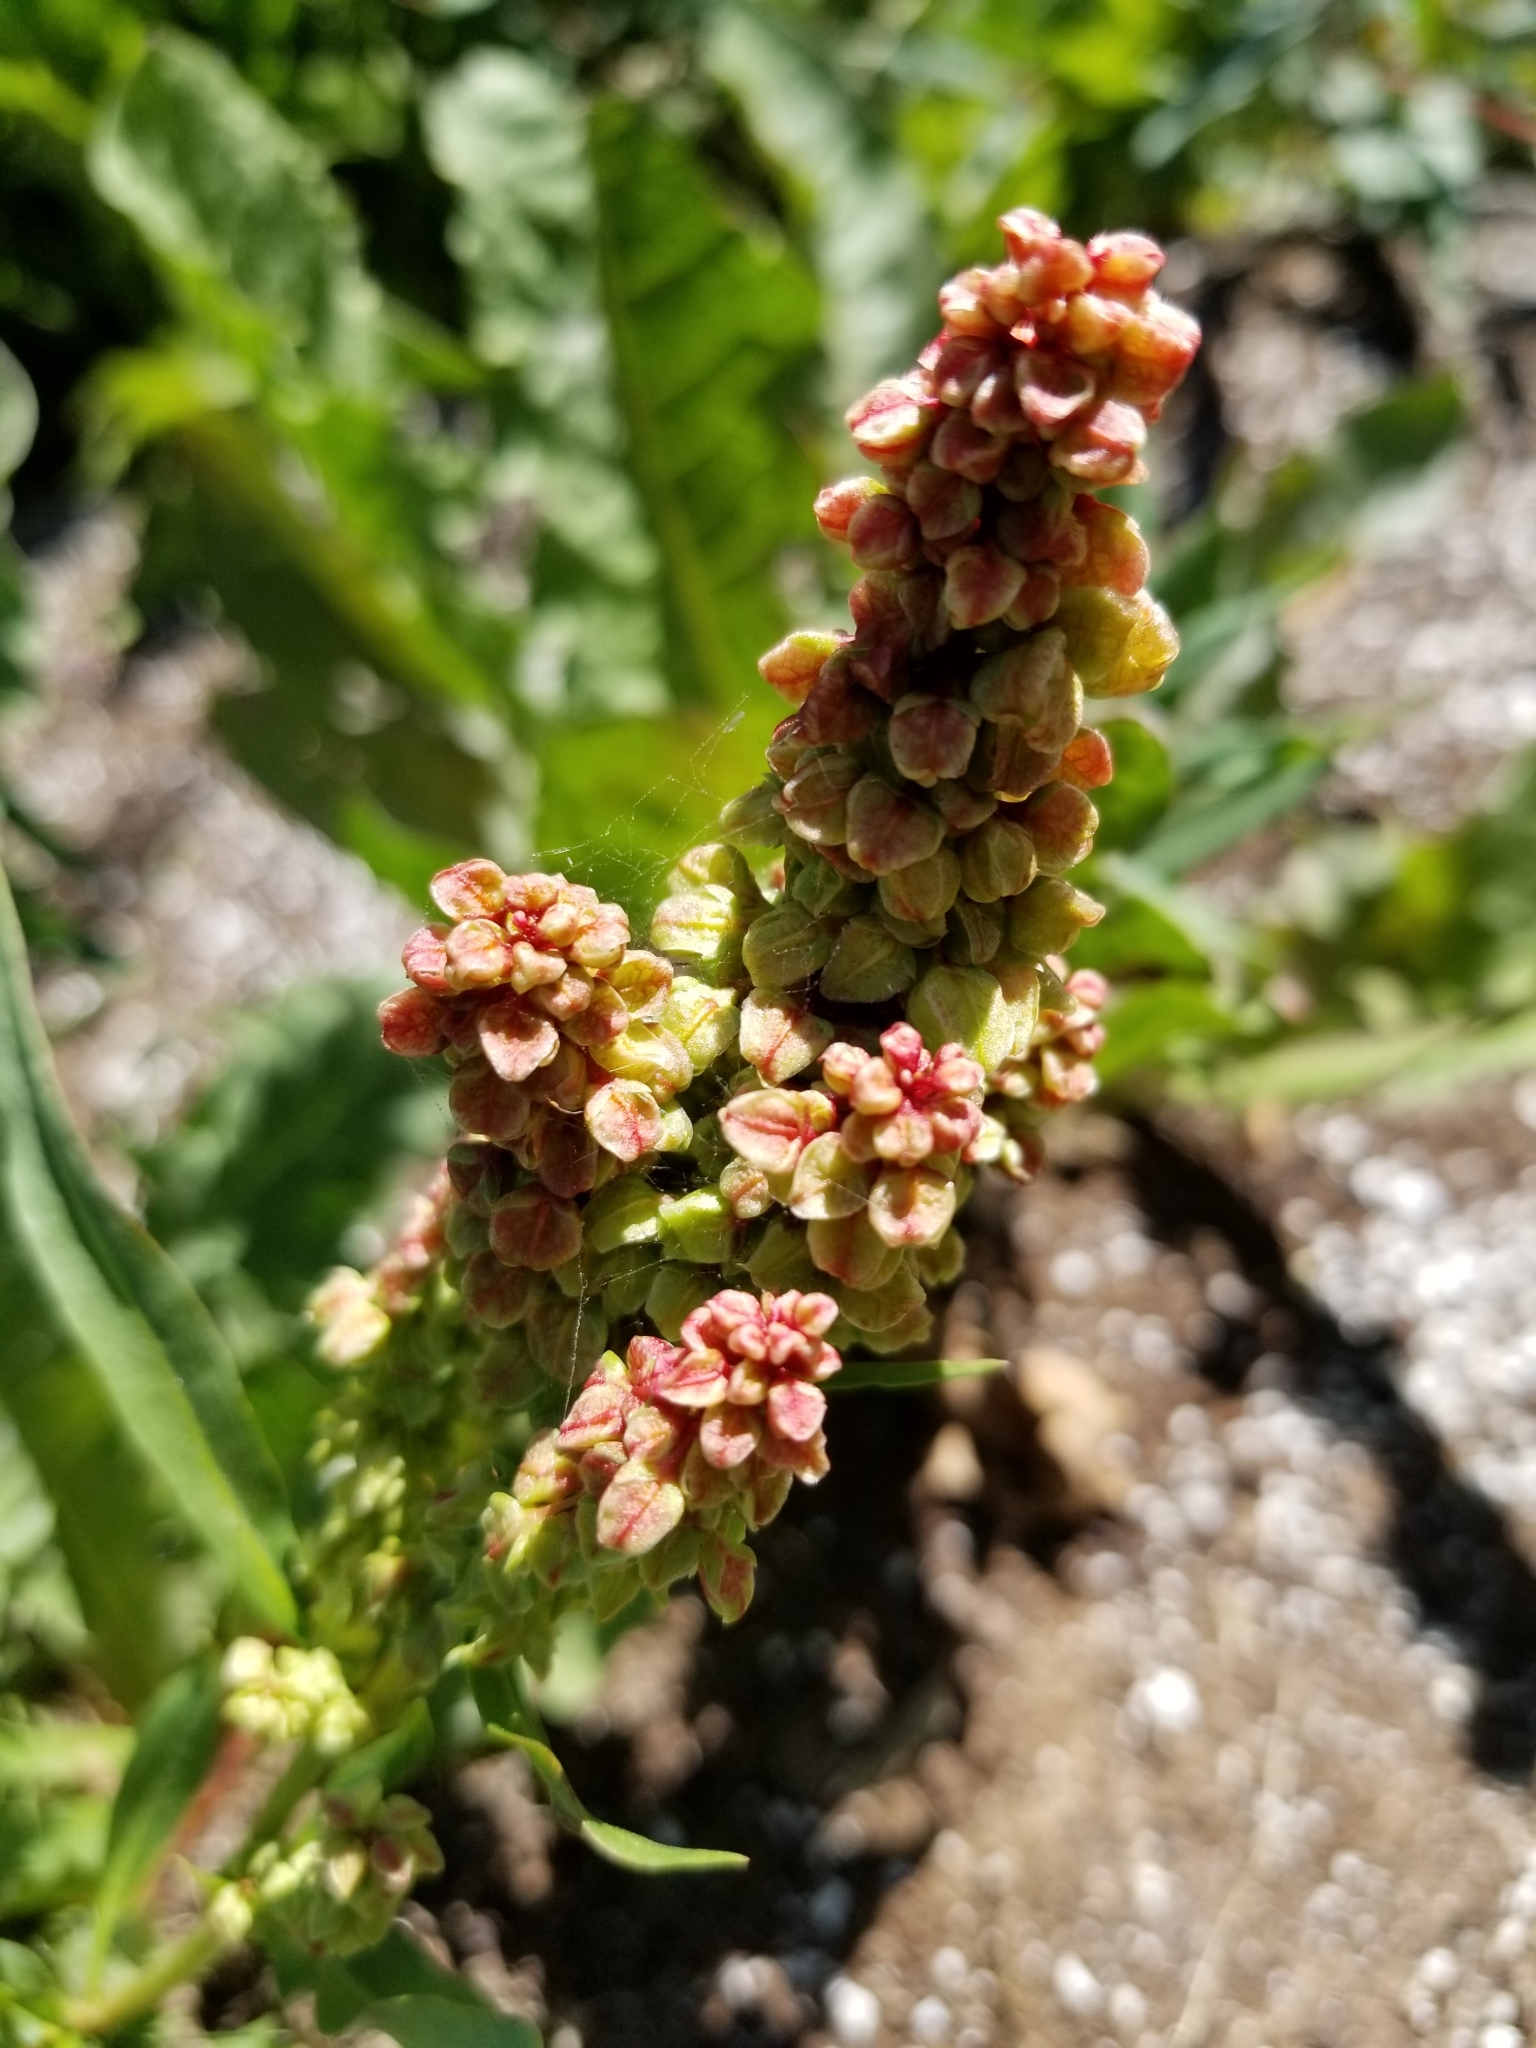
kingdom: Plantae
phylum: Tracheophyta
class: Magnoliopsida
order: Caryophyllales
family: Polygonaceae
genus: Rumex
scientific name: Rumex crispus
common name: Curled dock
